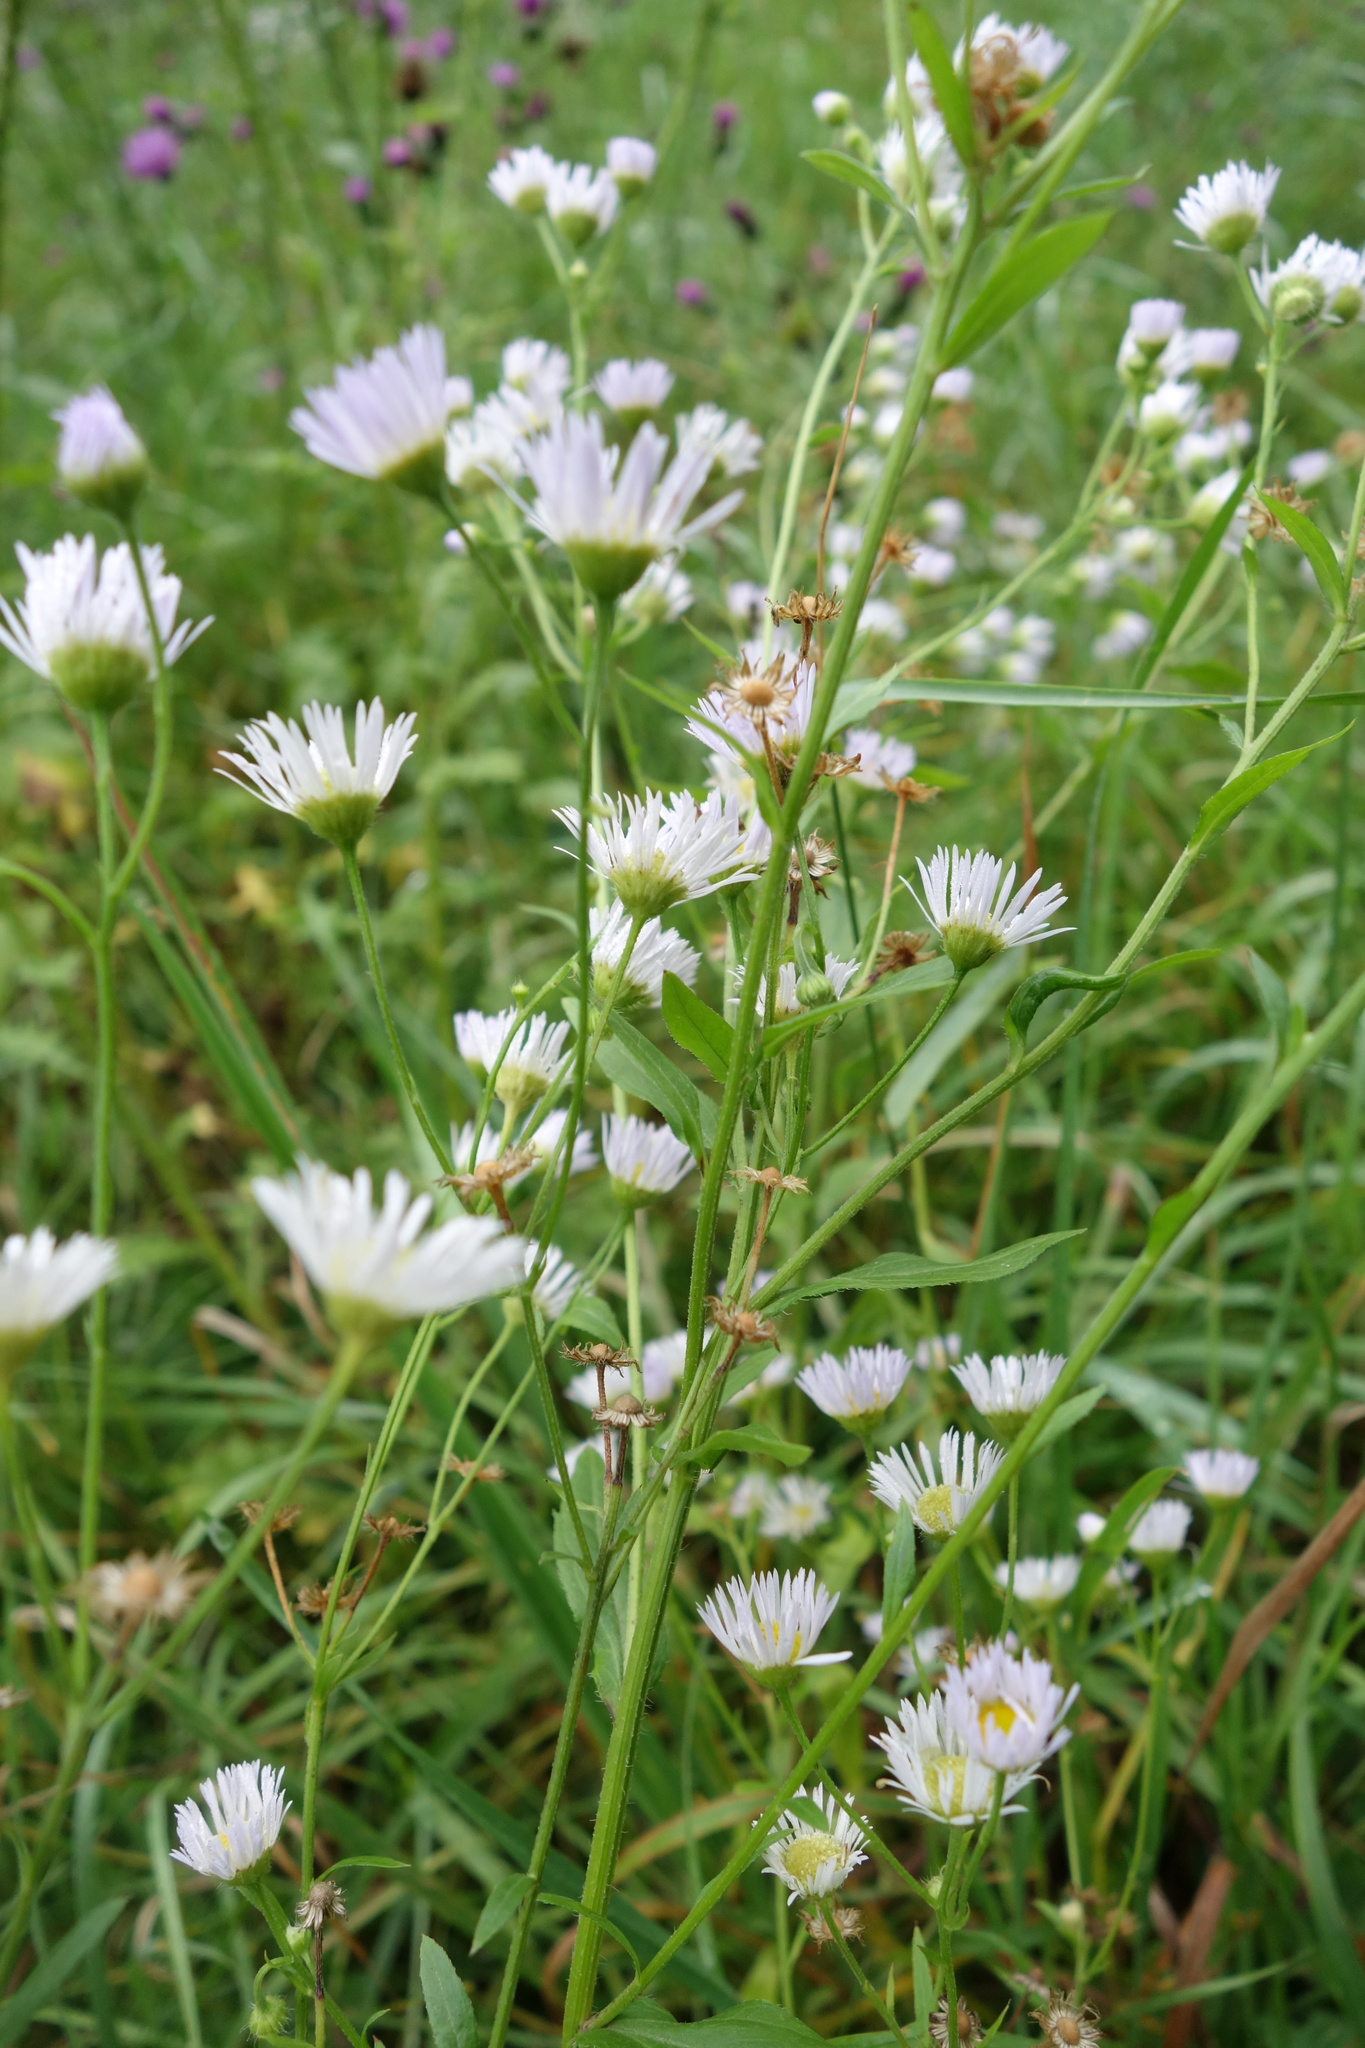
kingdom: Plantae
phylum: Tracheophyta
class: Magnoliopsida
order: Asterales
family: Asteraceae
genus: Erigeron
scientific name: Erigeron annuus
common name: Tall fleabane
